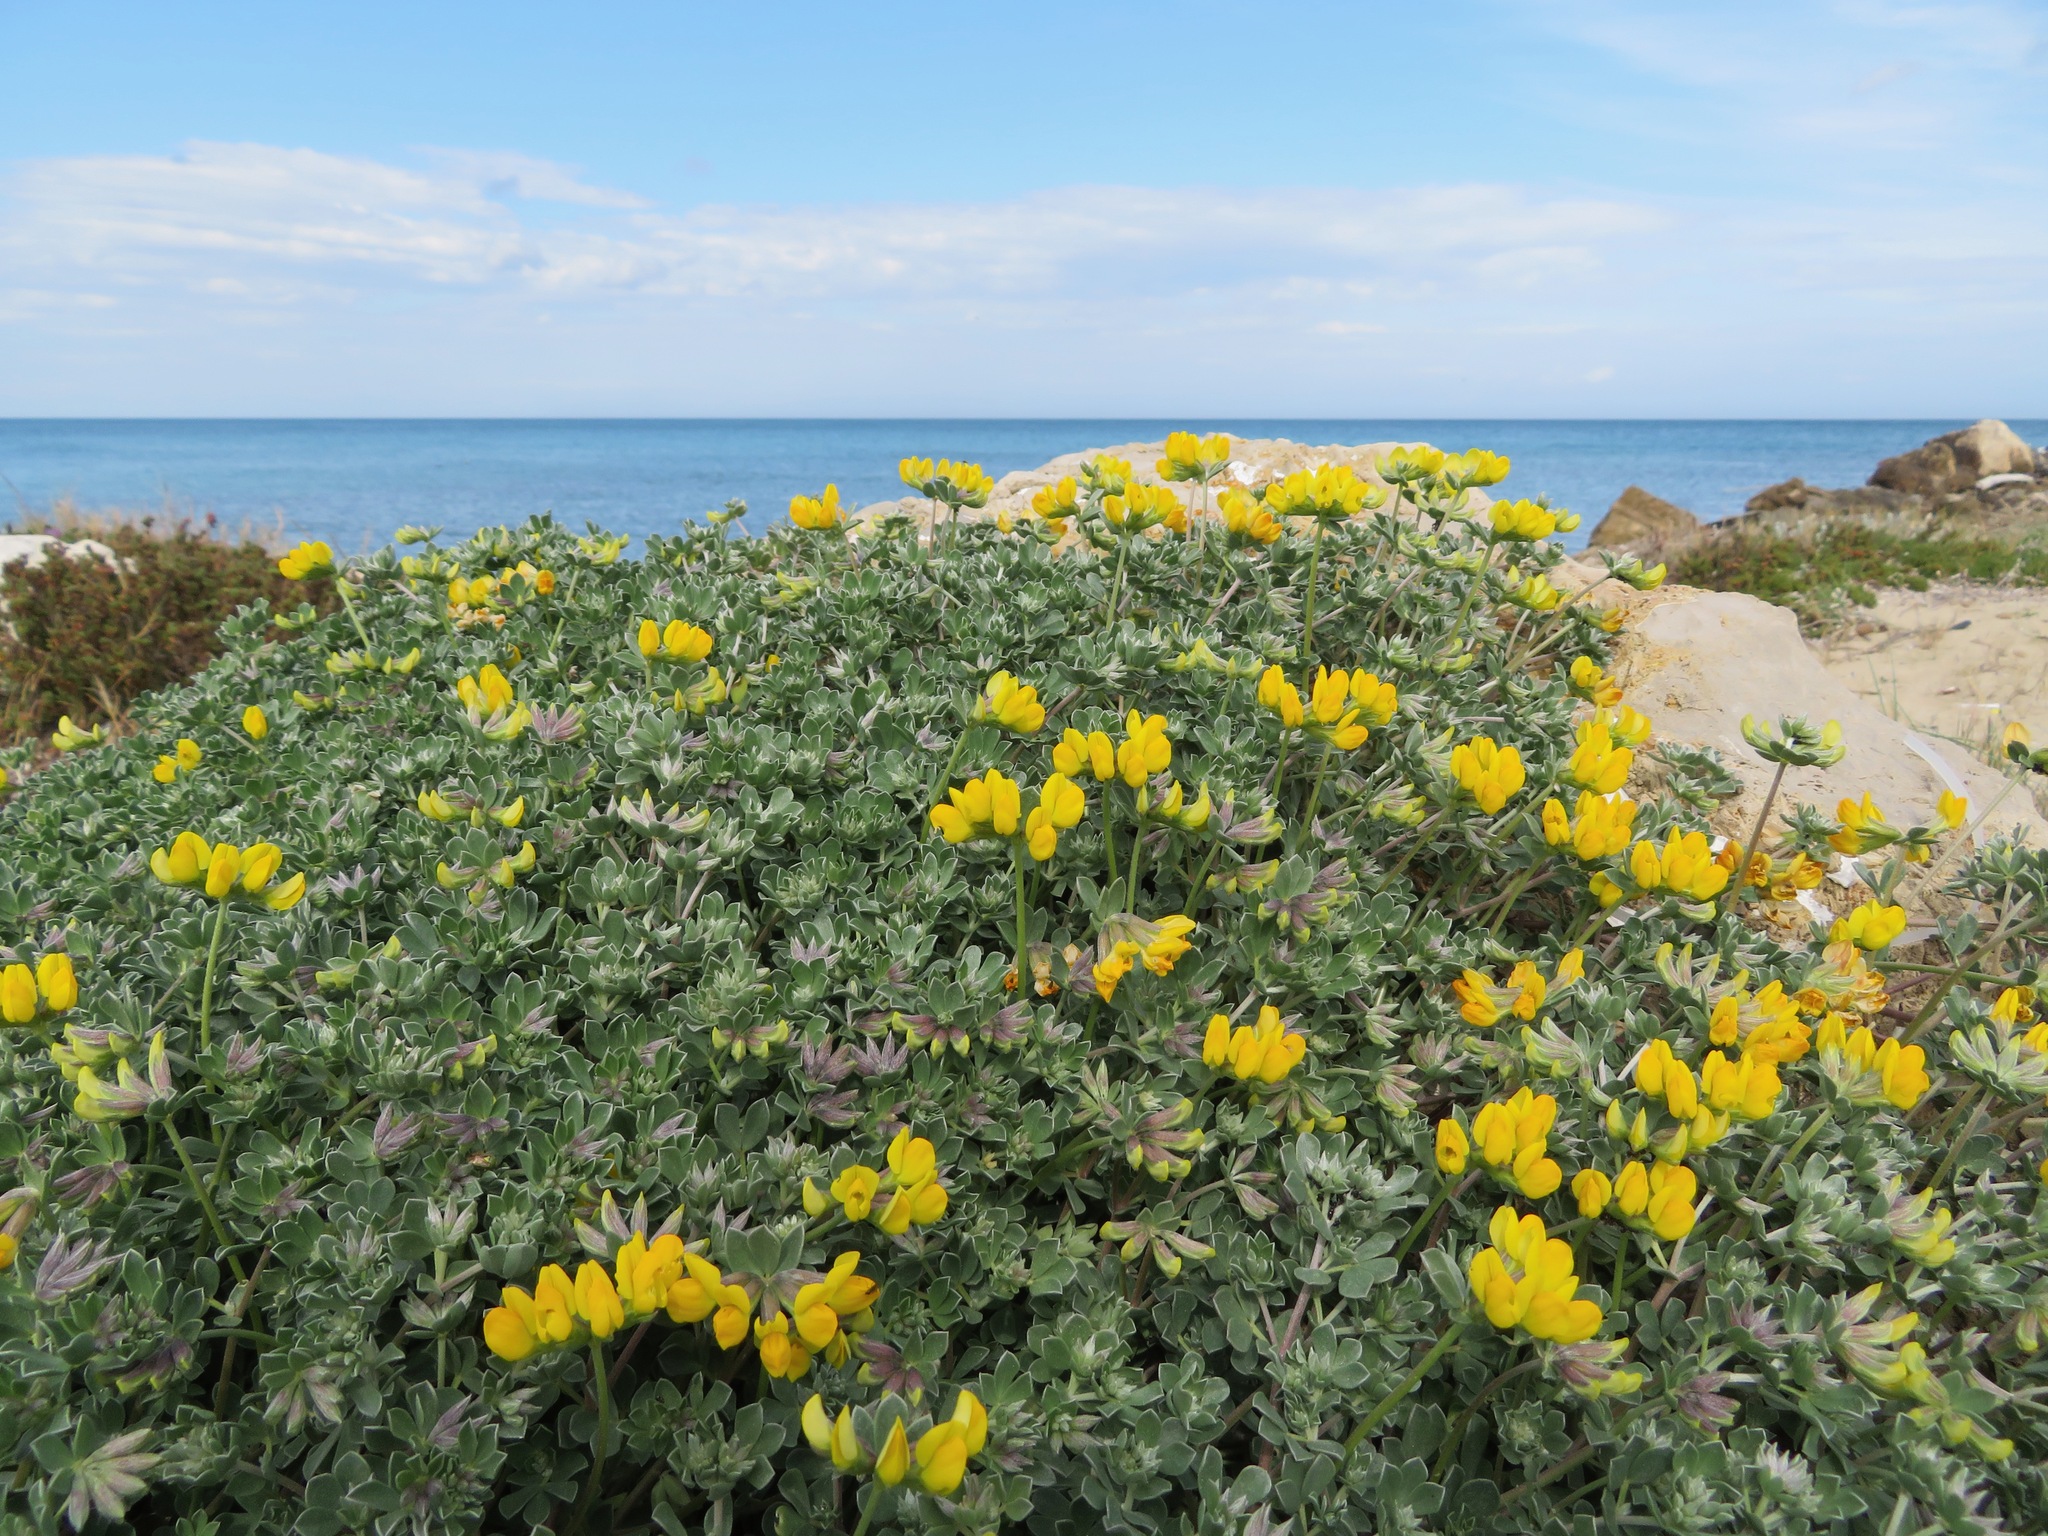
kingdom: Plantae
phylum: Tracheophyta
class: Magnoliopsida
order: Fabales
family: Fabaceae
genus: Lotus
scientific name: Lotus cytisoides
